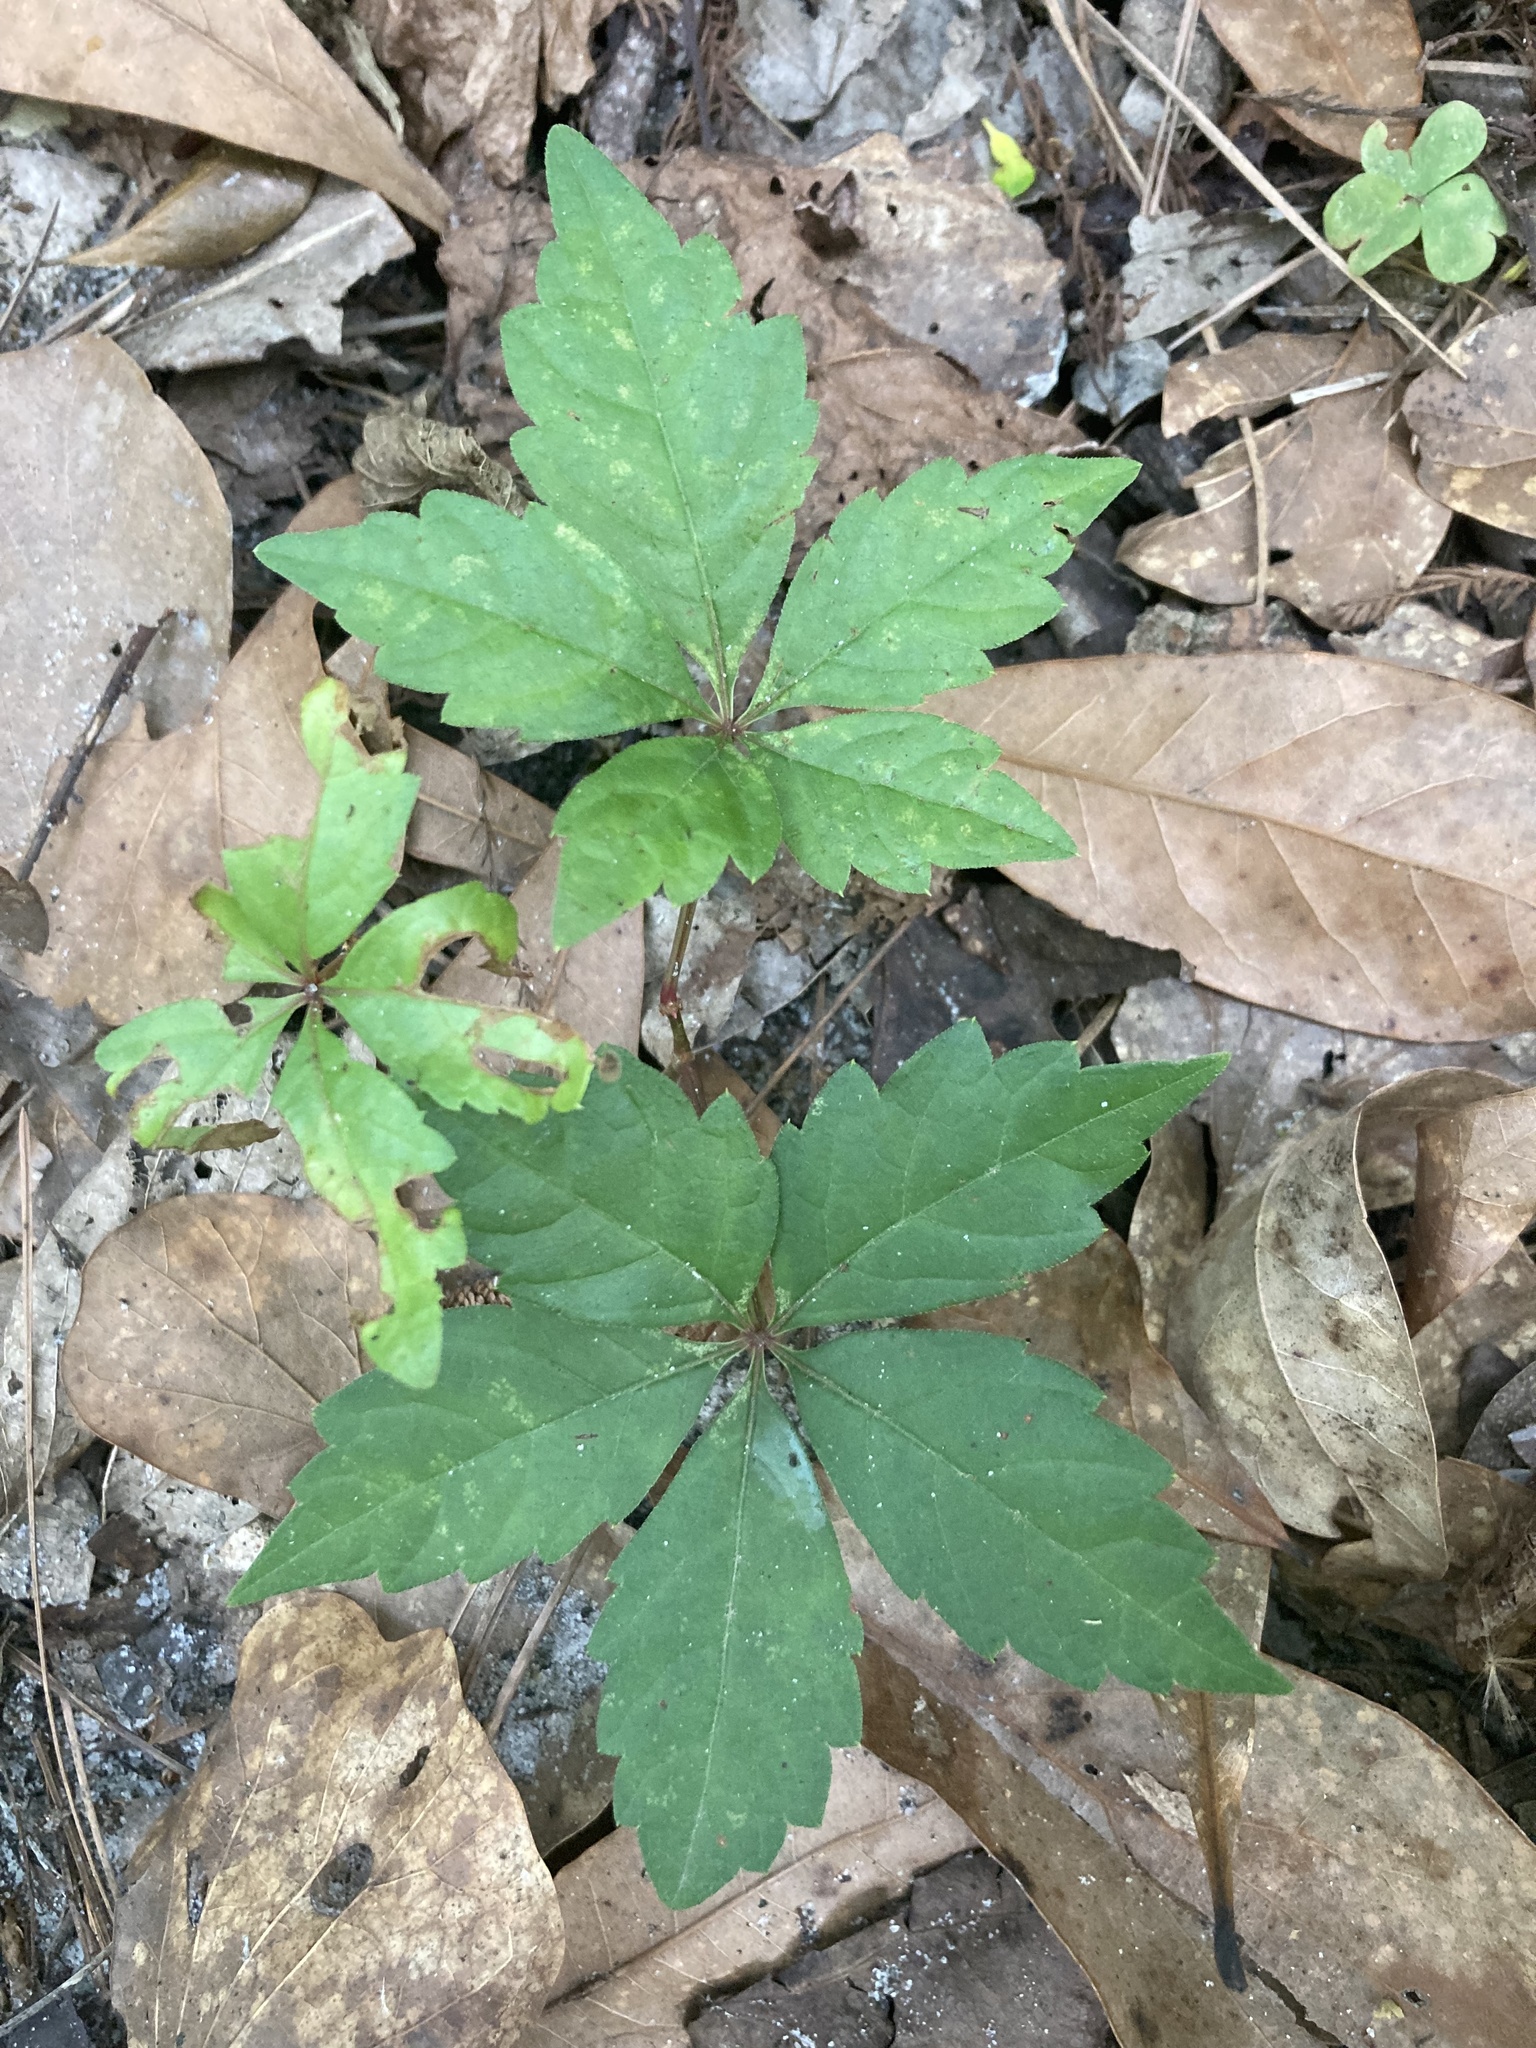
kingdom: Plantae
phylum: Tracheophyta
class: Magnoliopsida
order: Vitales
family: Vitaceae
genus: Parthenocissus
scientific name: Parthenocissus quinquefolia
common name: Virginia-creeper
